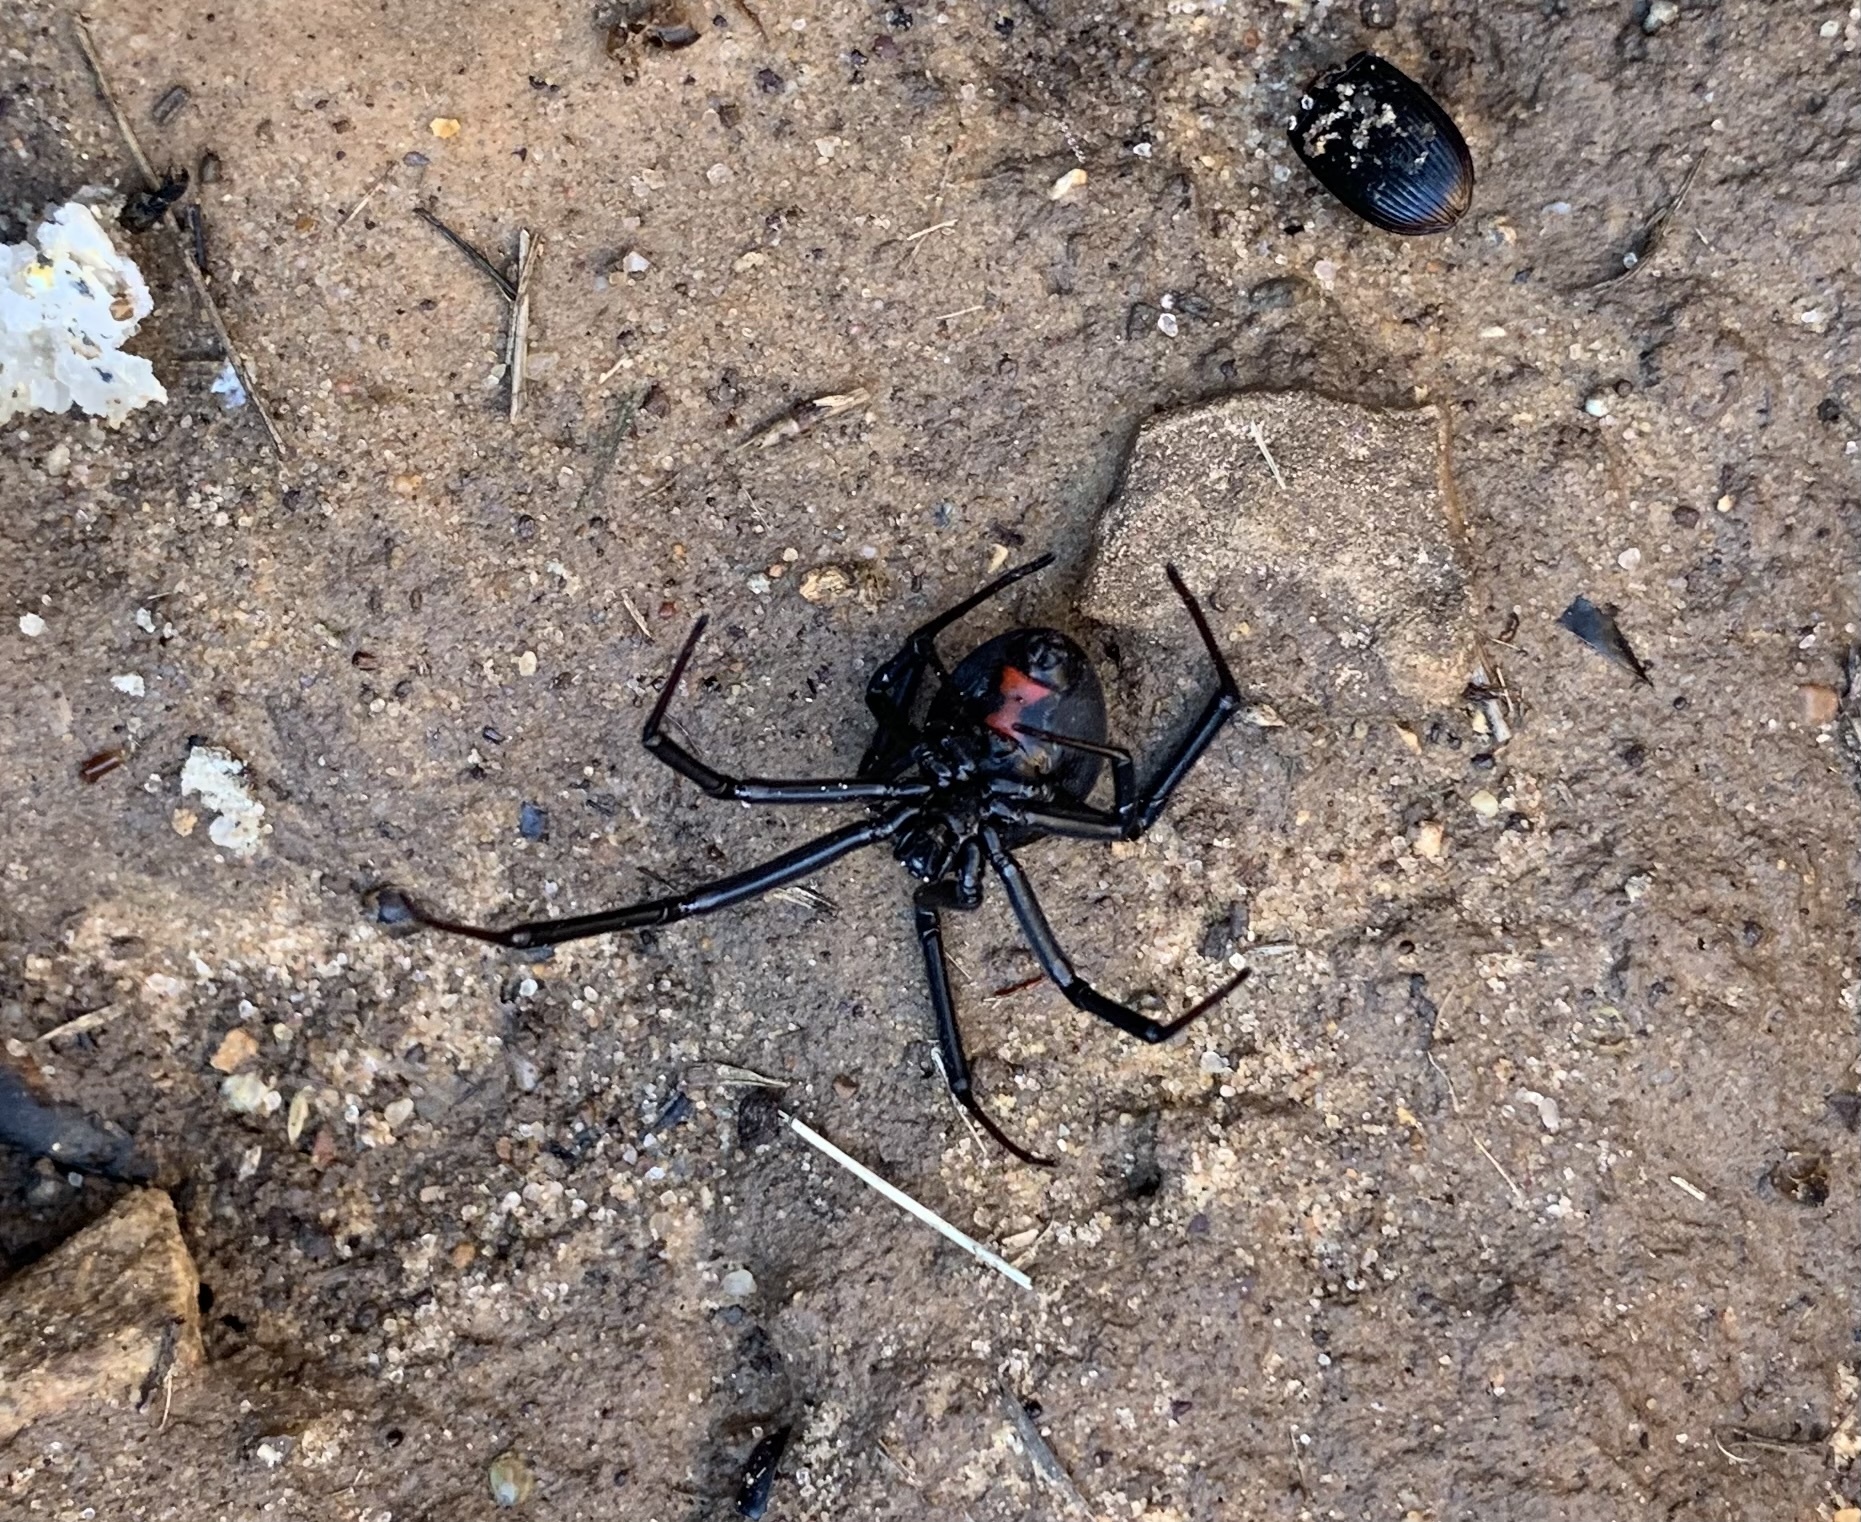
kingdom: Animalia
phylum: Arthropoda
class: Arachnida
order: Araneae
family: Theridiidae
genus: Latrodectus
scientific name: Latrodectus hesperus
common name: Western black widow
